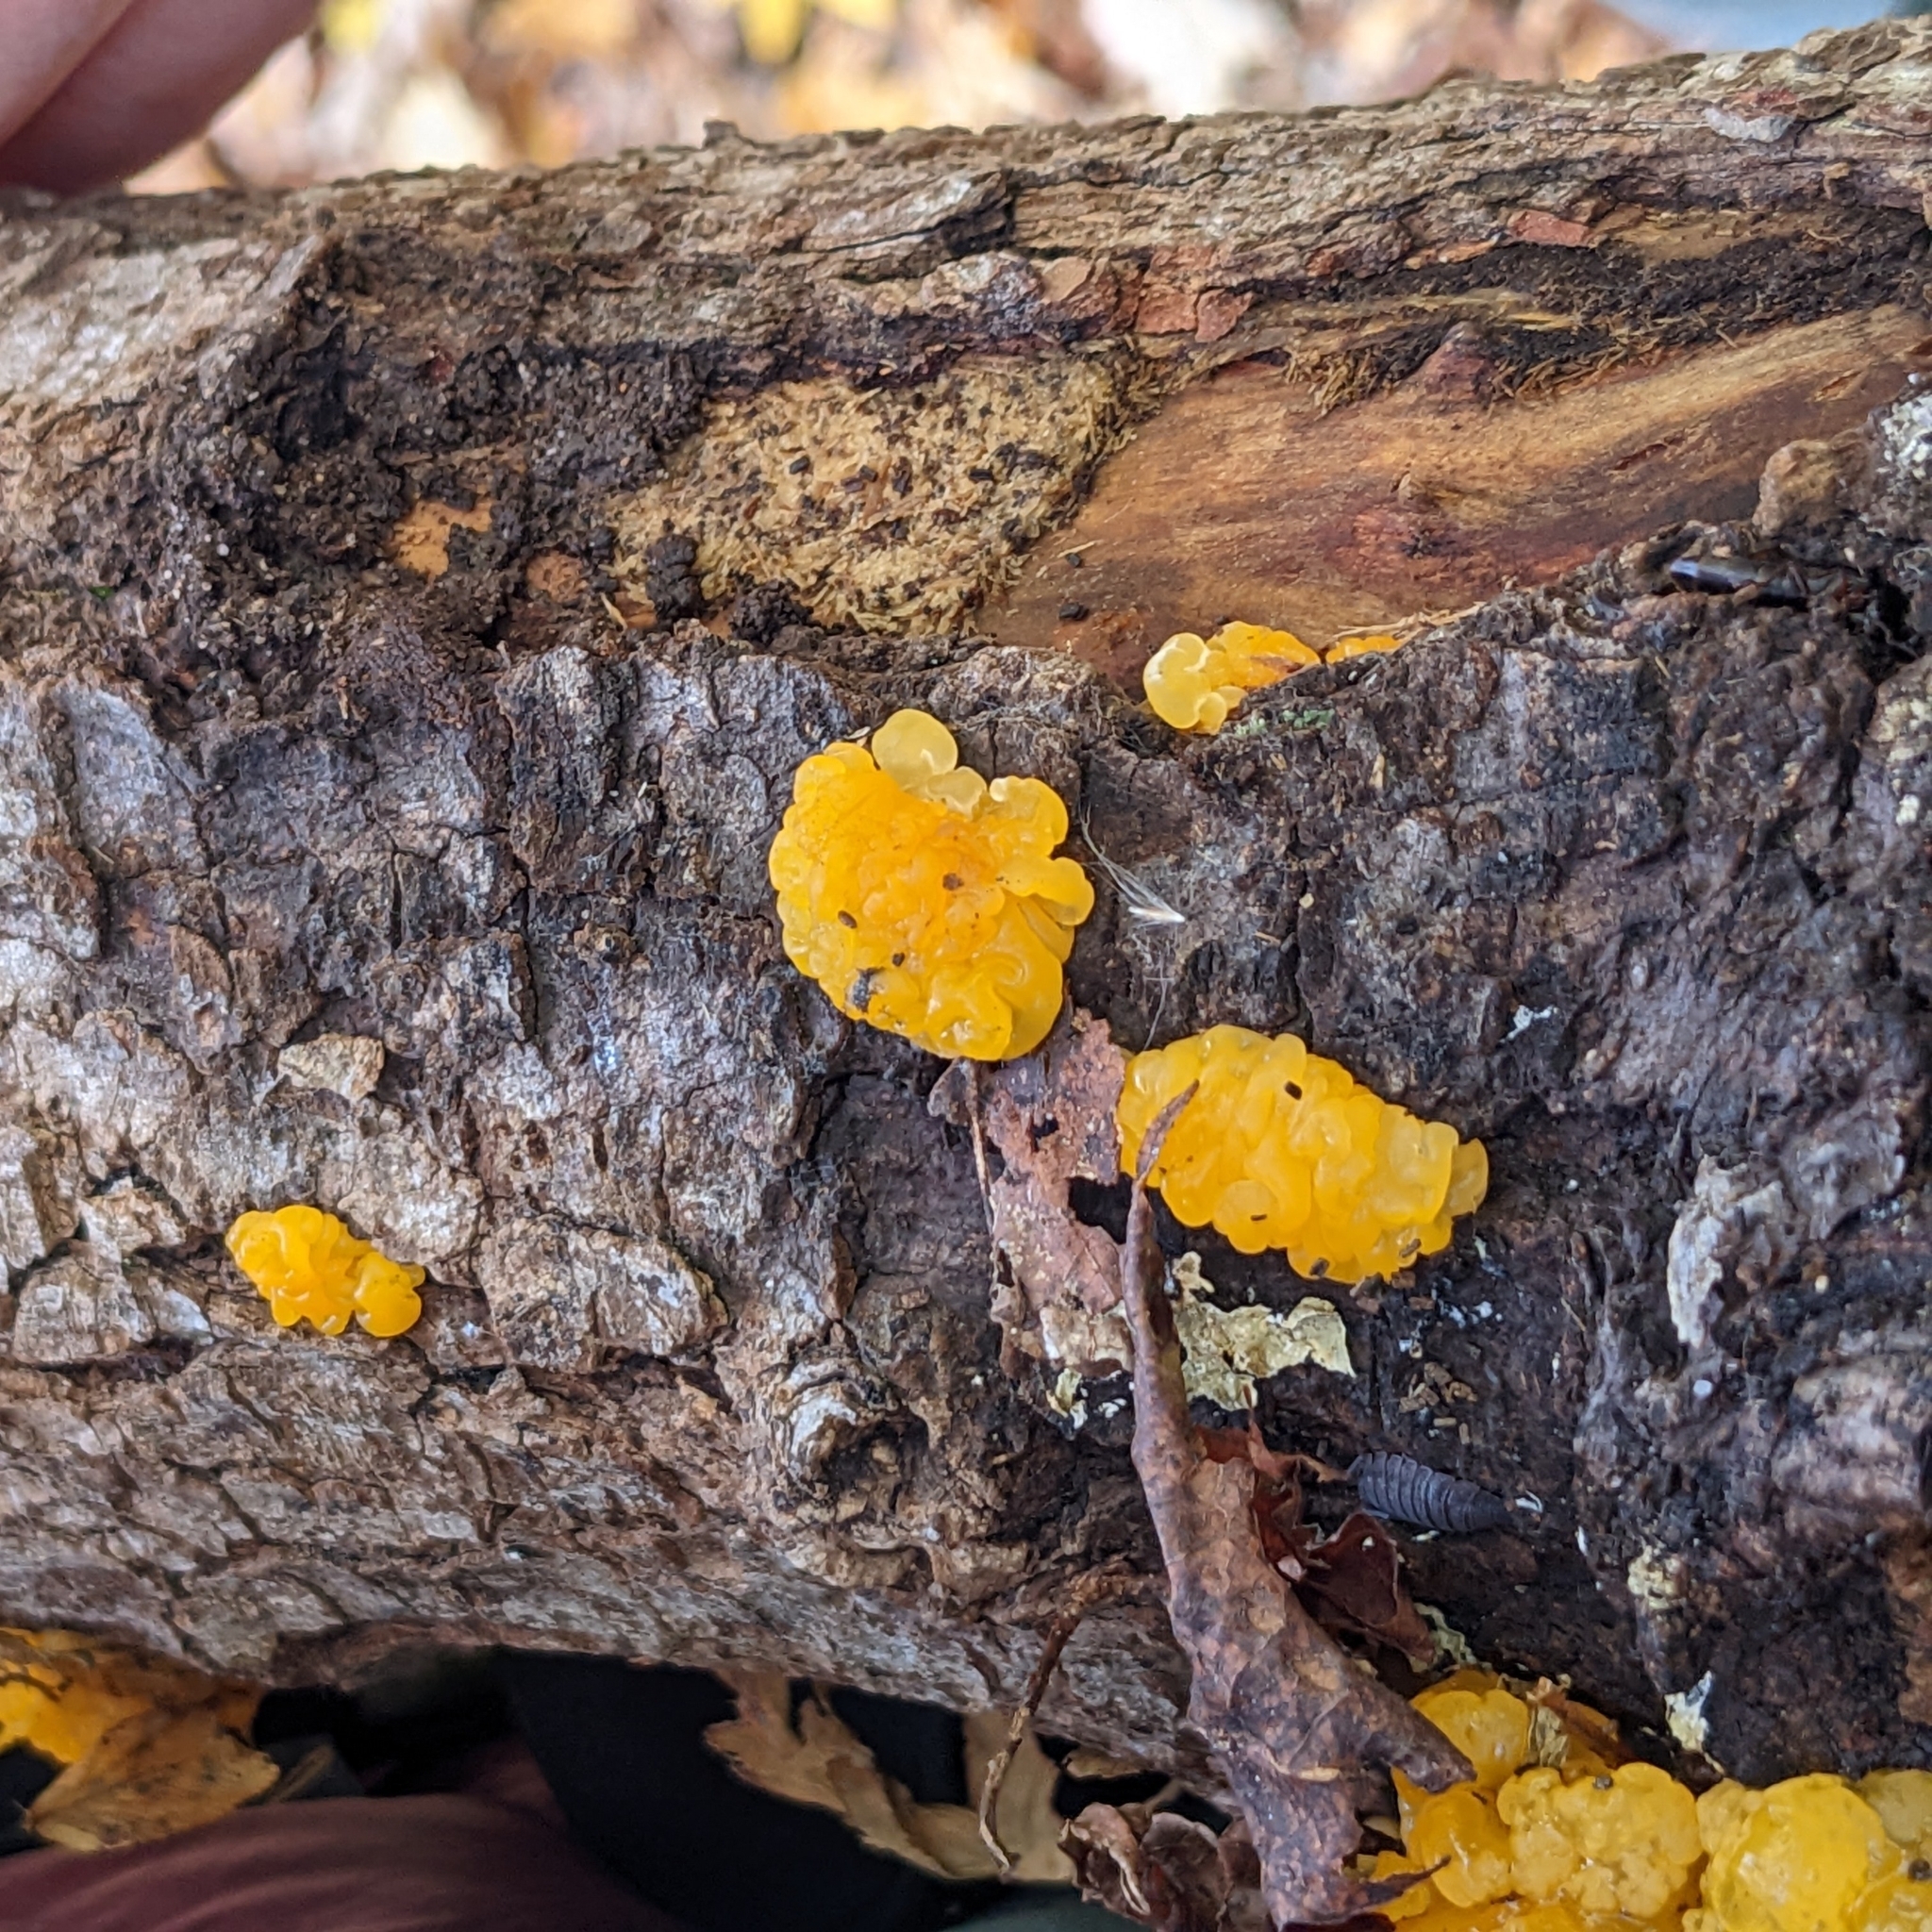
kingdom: Fungi
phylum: Basidiomycota
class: Dacrymycetes
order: Dacrymycetales
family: Dacrymycetaceae
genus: Dacrymyces
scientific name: Dacrymyces chrysospermus
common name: Orange jelly spot
